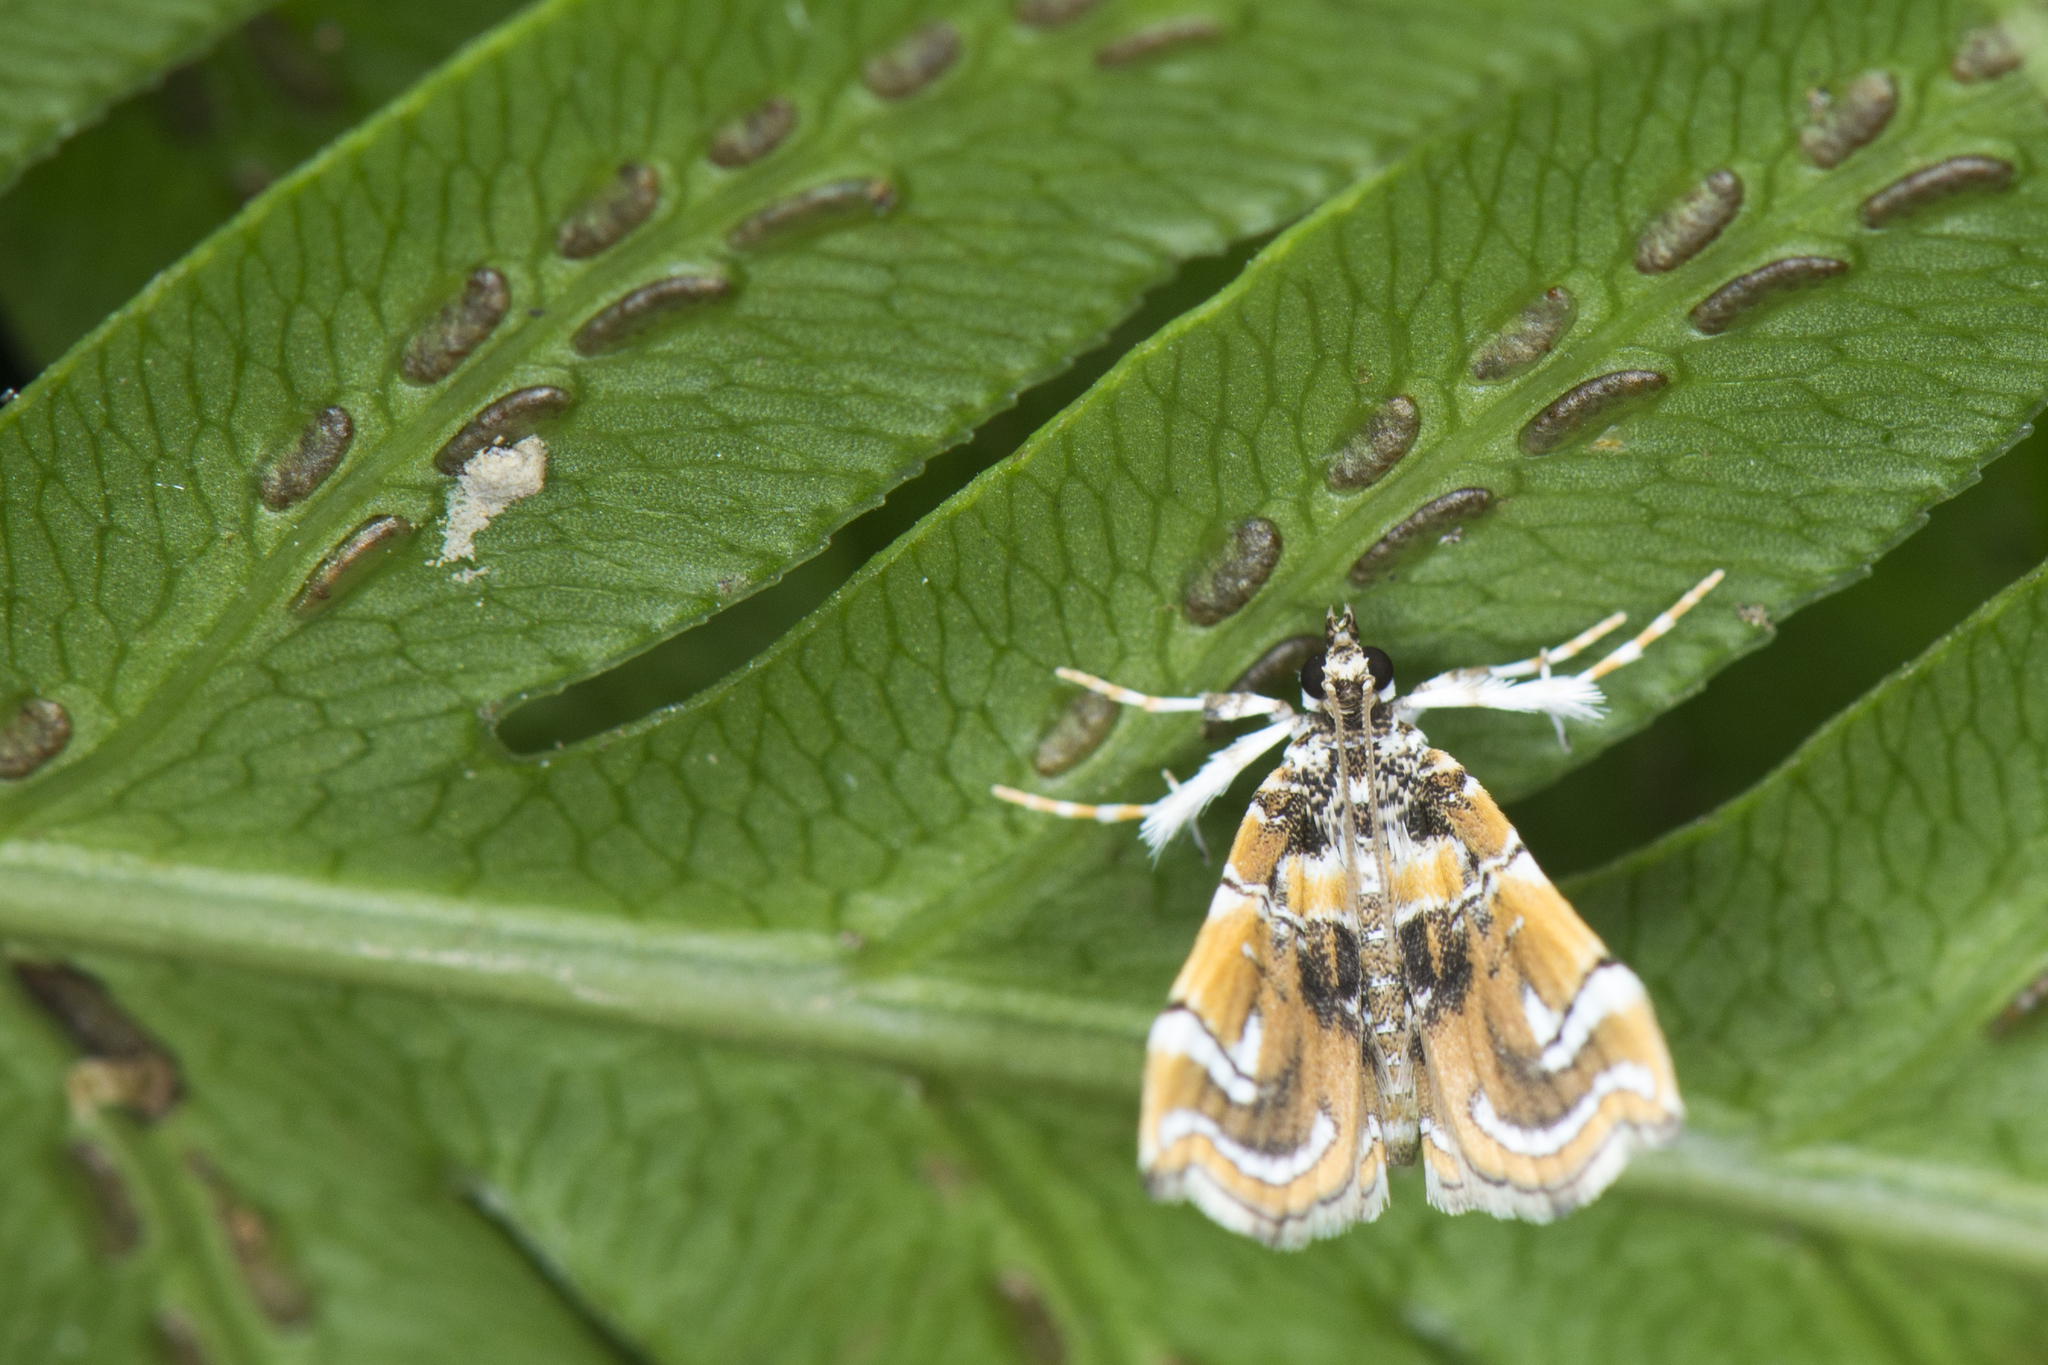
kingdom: Animalia
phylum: Arthropoda
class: Insecta
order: Lepidoptera
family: Pyralidae
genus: Musotima
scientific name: Musotima suffusalis
